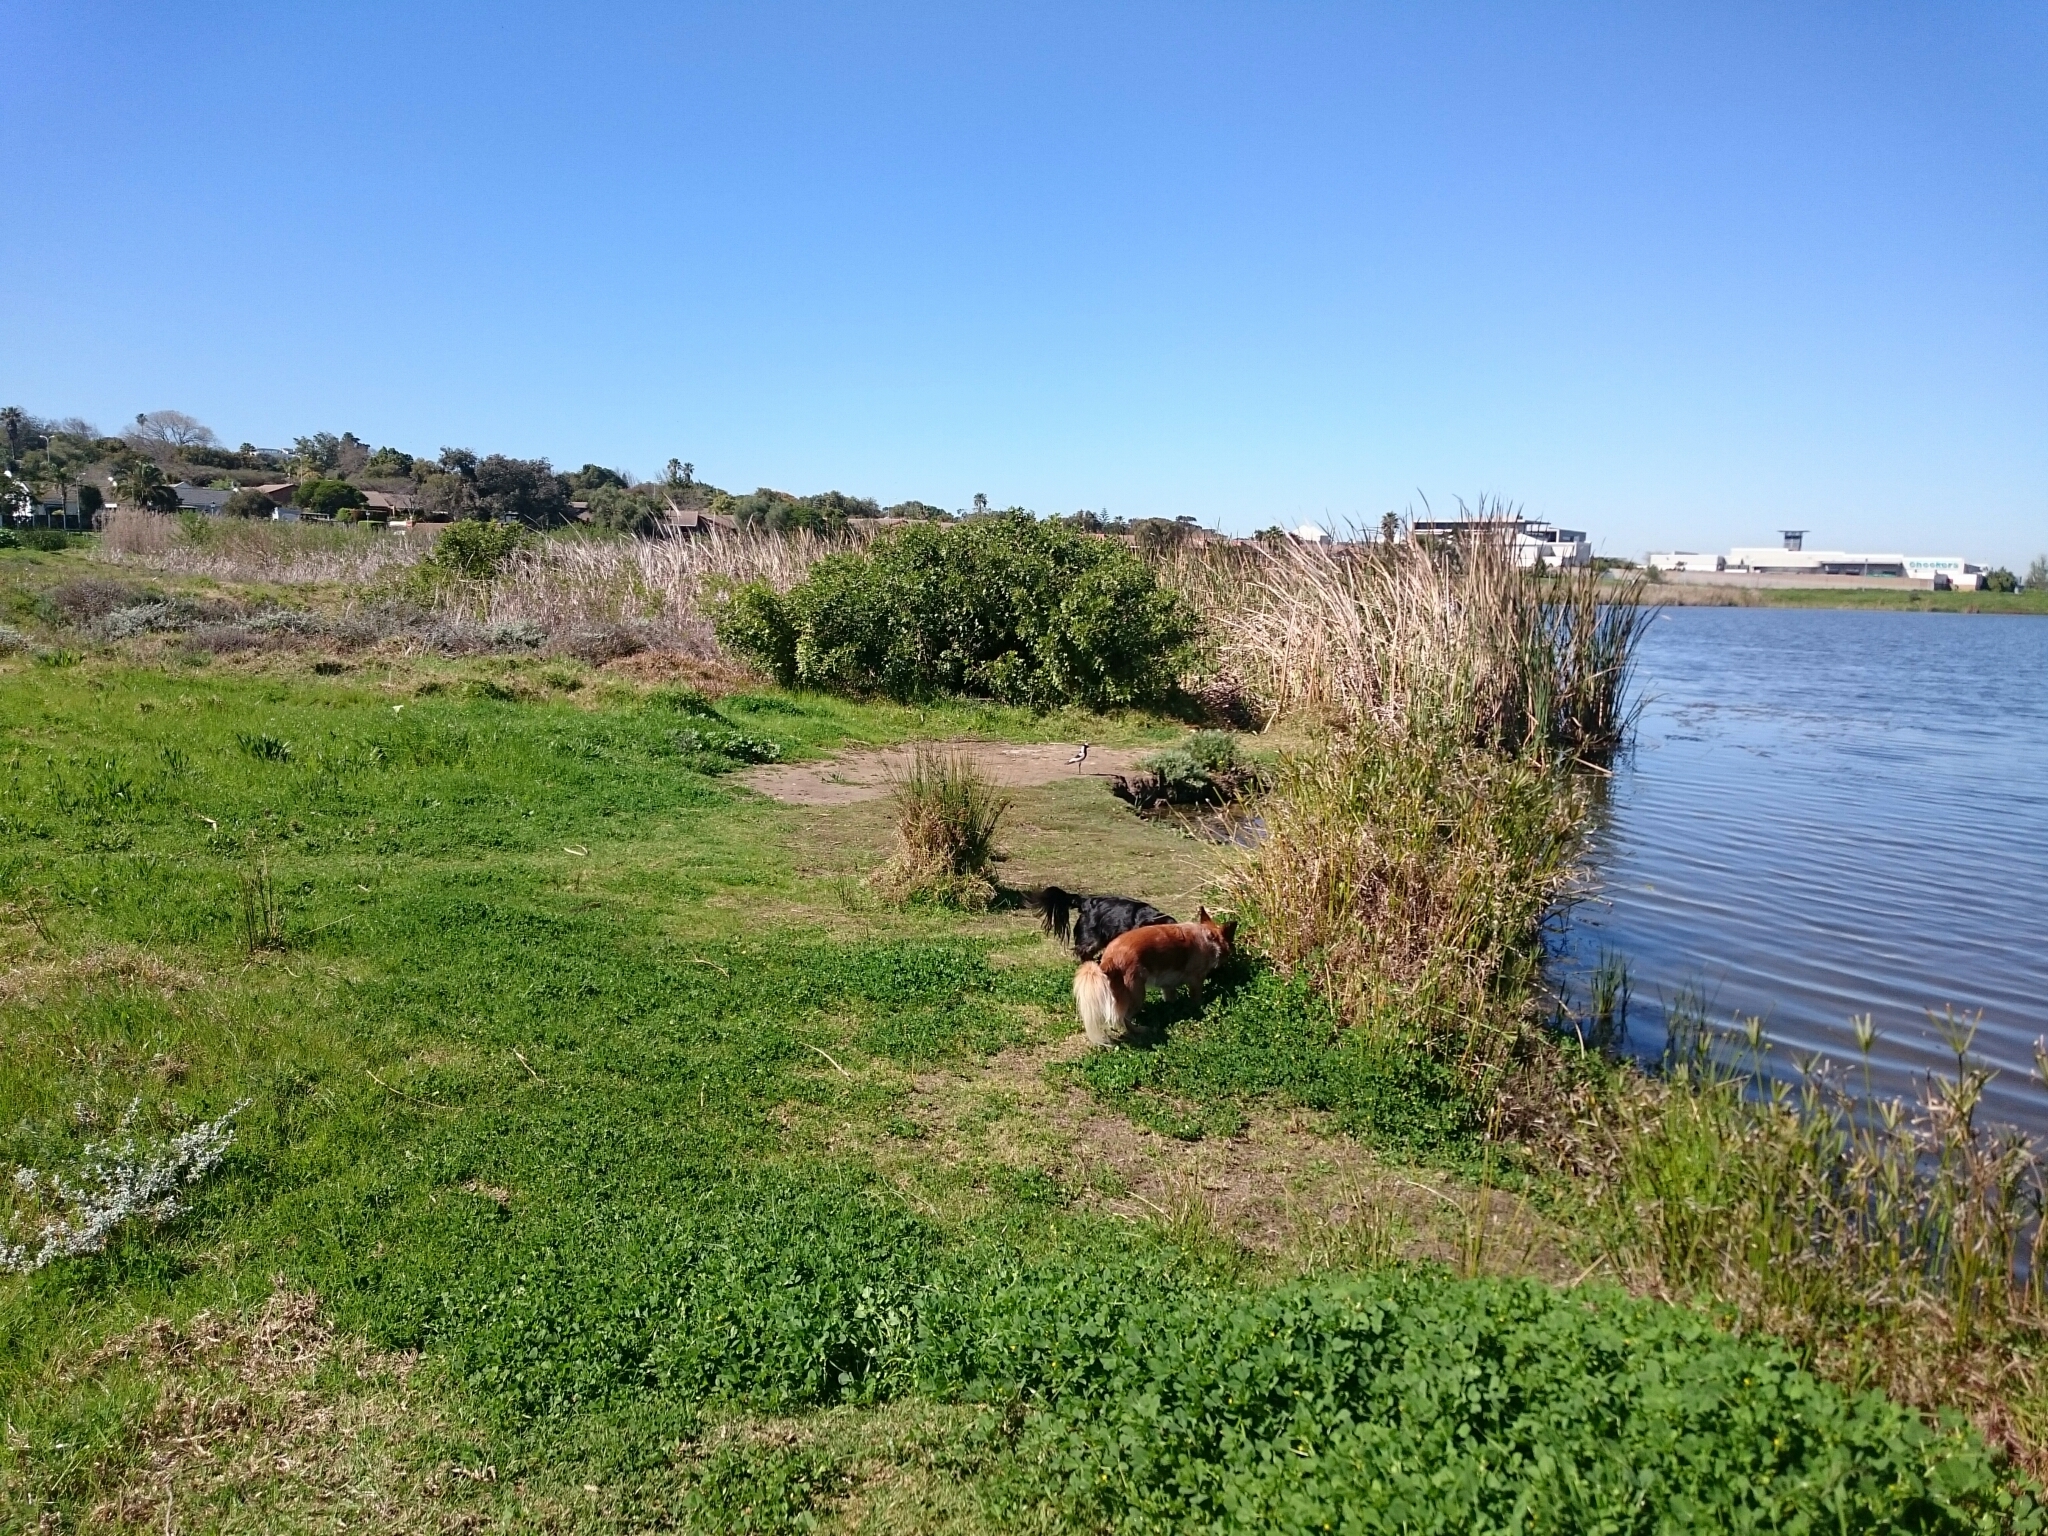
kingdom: Animalia
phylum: Chordata
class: Aves
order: Charadriiformes
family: Charadriidae
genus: Vanellus
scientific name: Vanellus armatus
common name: Blacksmith lapwing
